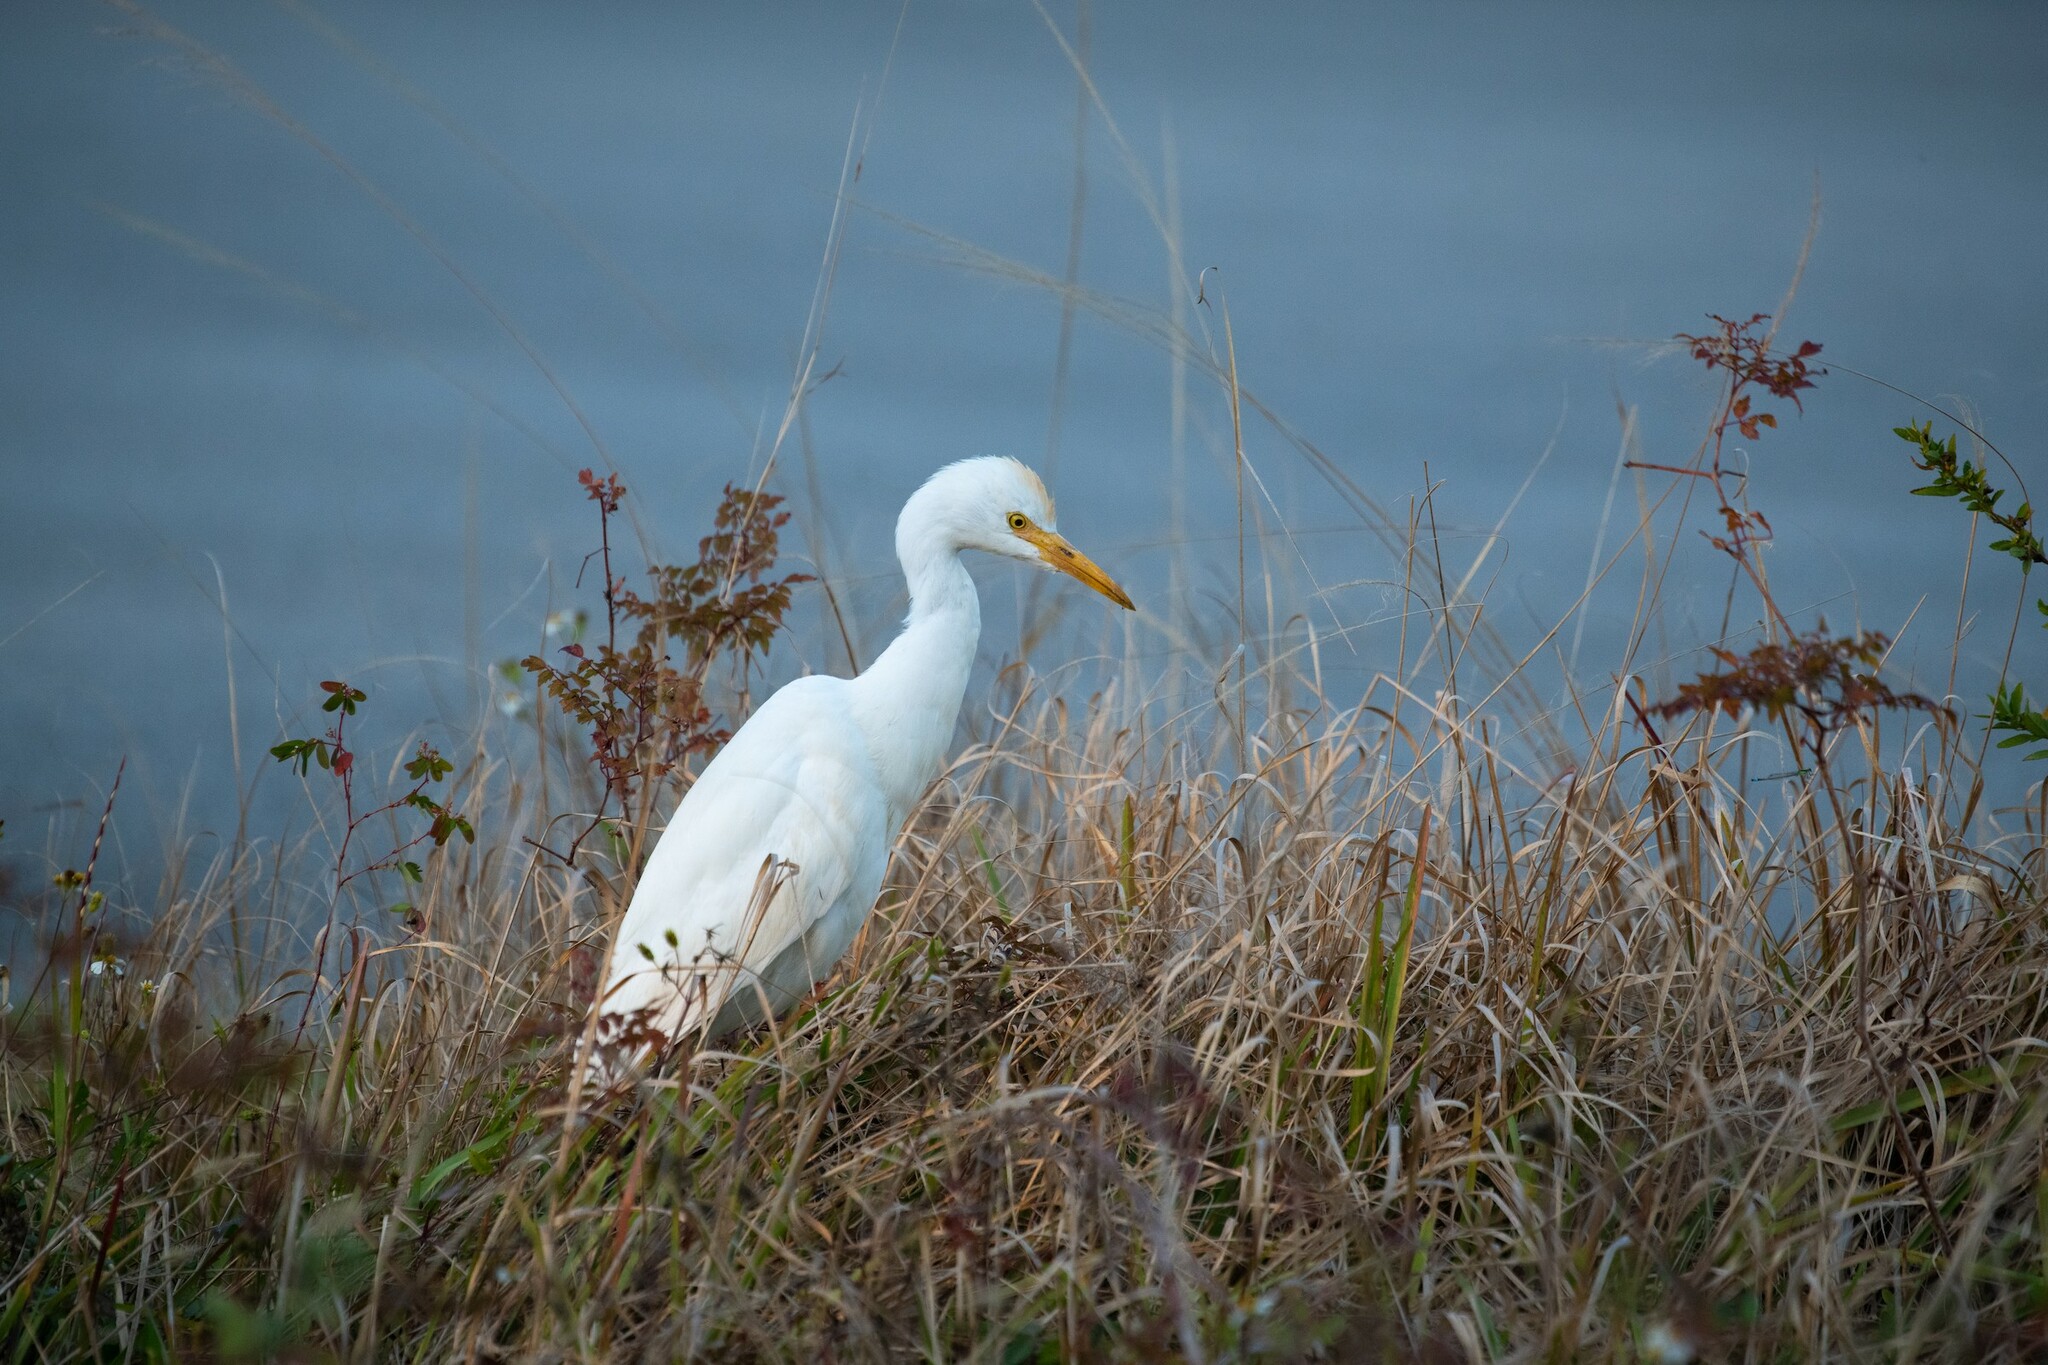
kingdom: Animalia
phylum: Chordata
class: Aves
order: Pelecaniformes
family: Ardeidae
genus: Bubulcus
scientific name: Bubulcus ibis
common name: Cattle egret
